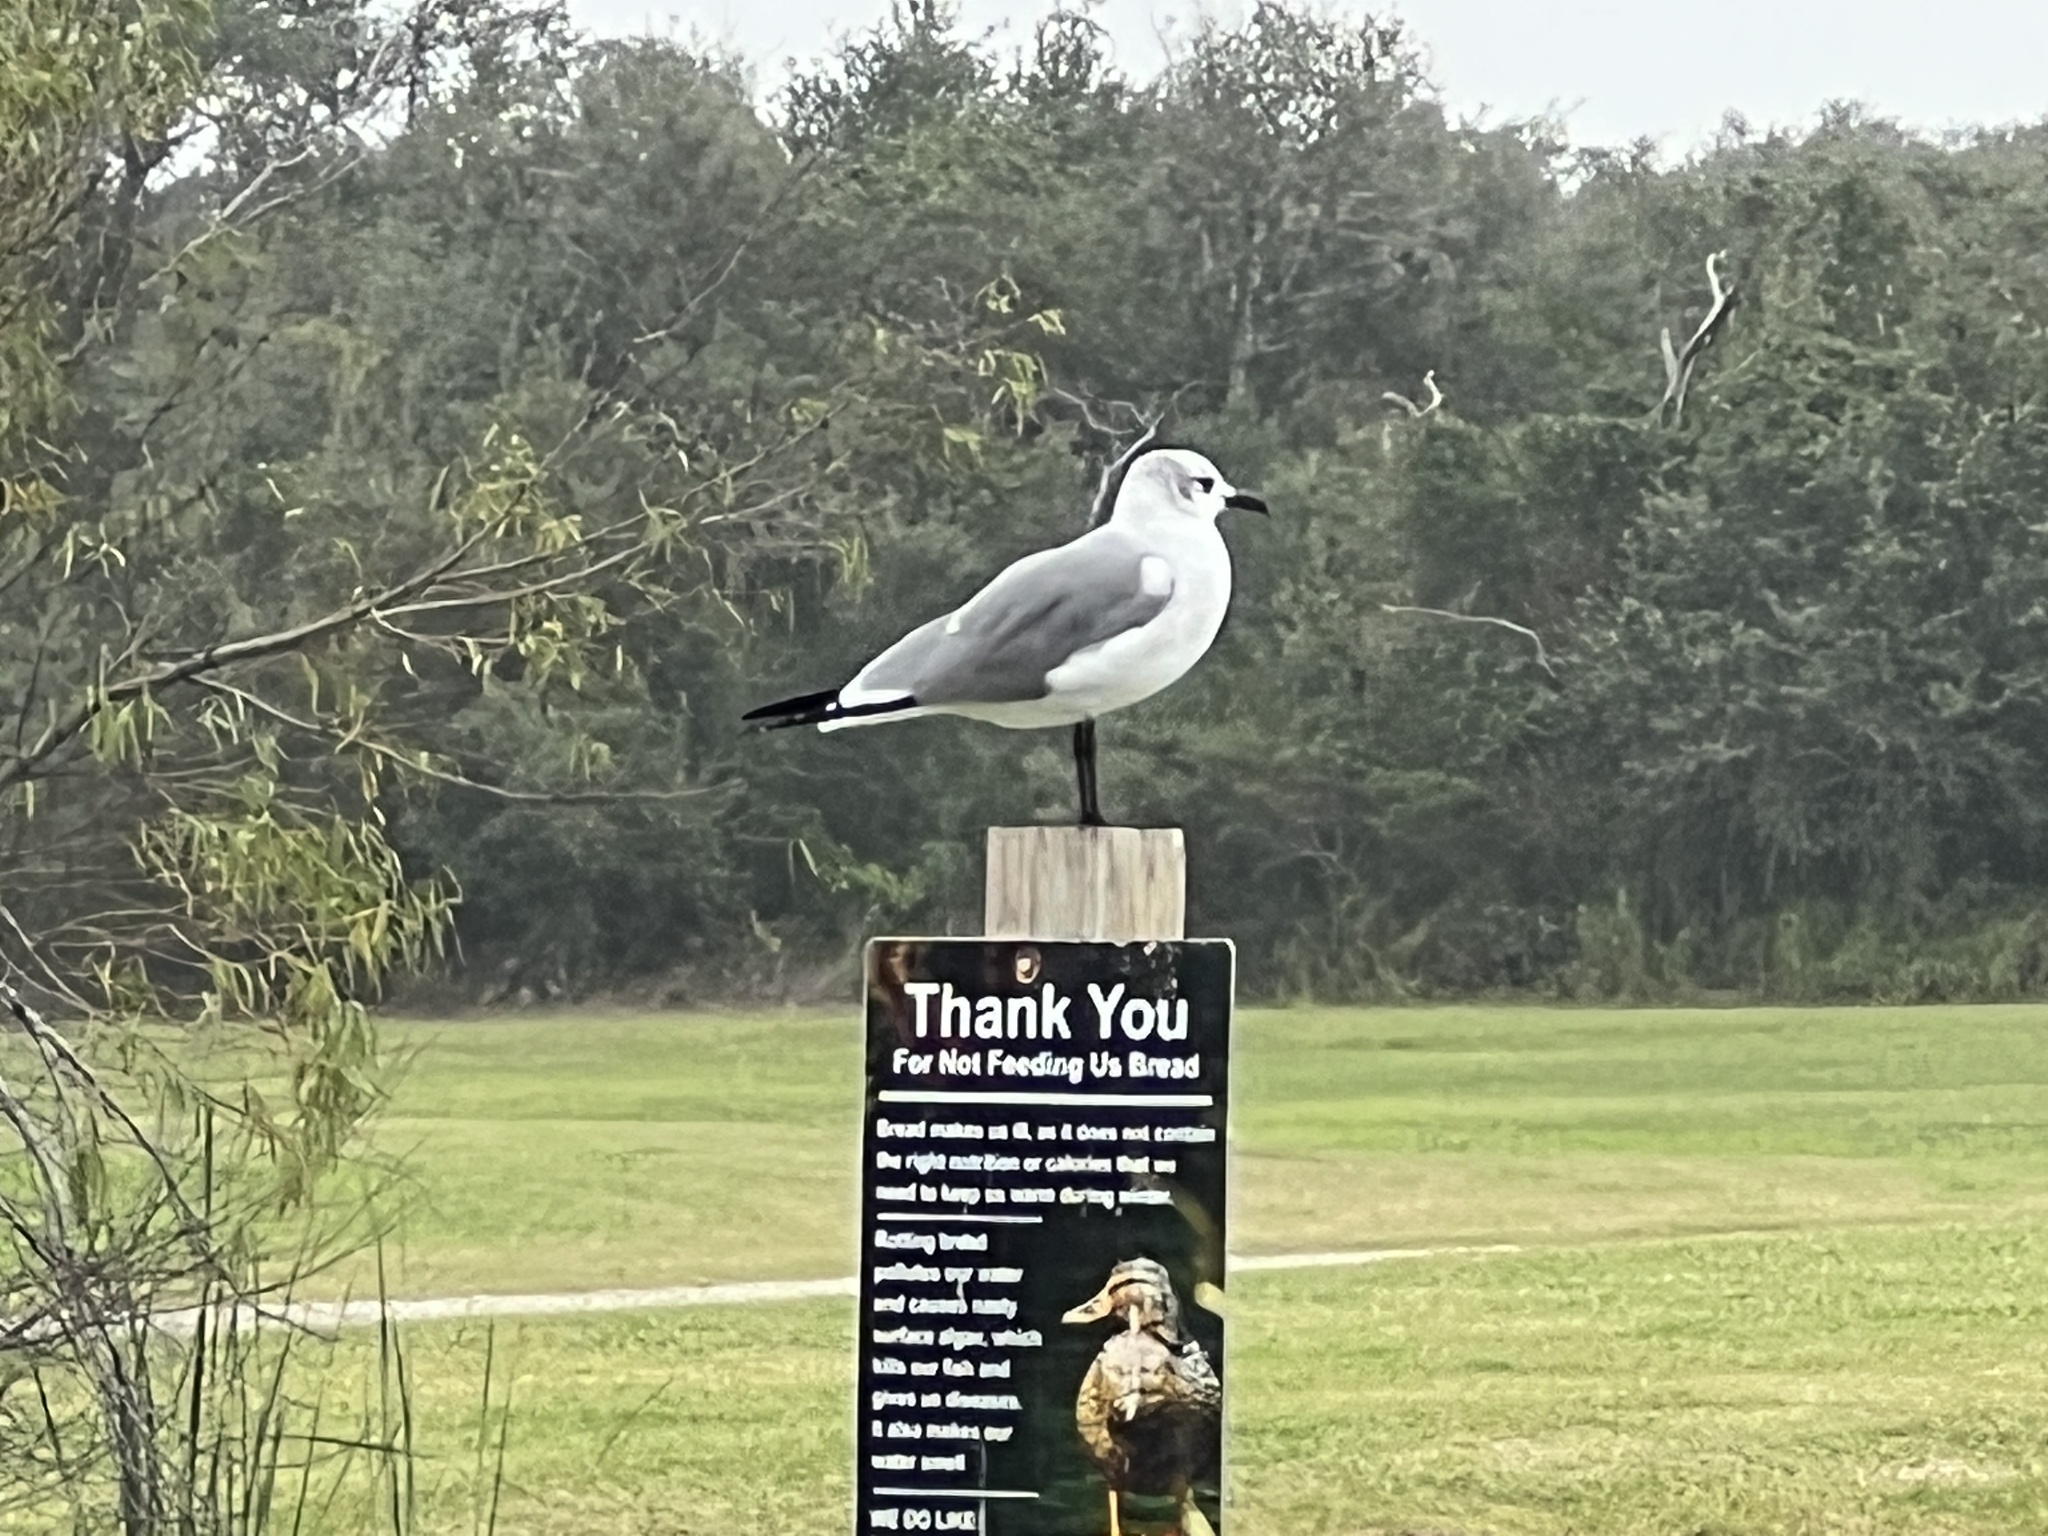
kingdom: Animalia
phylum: Chordata
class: Aves
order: Charadriiformes
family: Laridae
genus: Leucophaeus
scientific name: Leucophaeus atricilla
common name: Laughing gull
